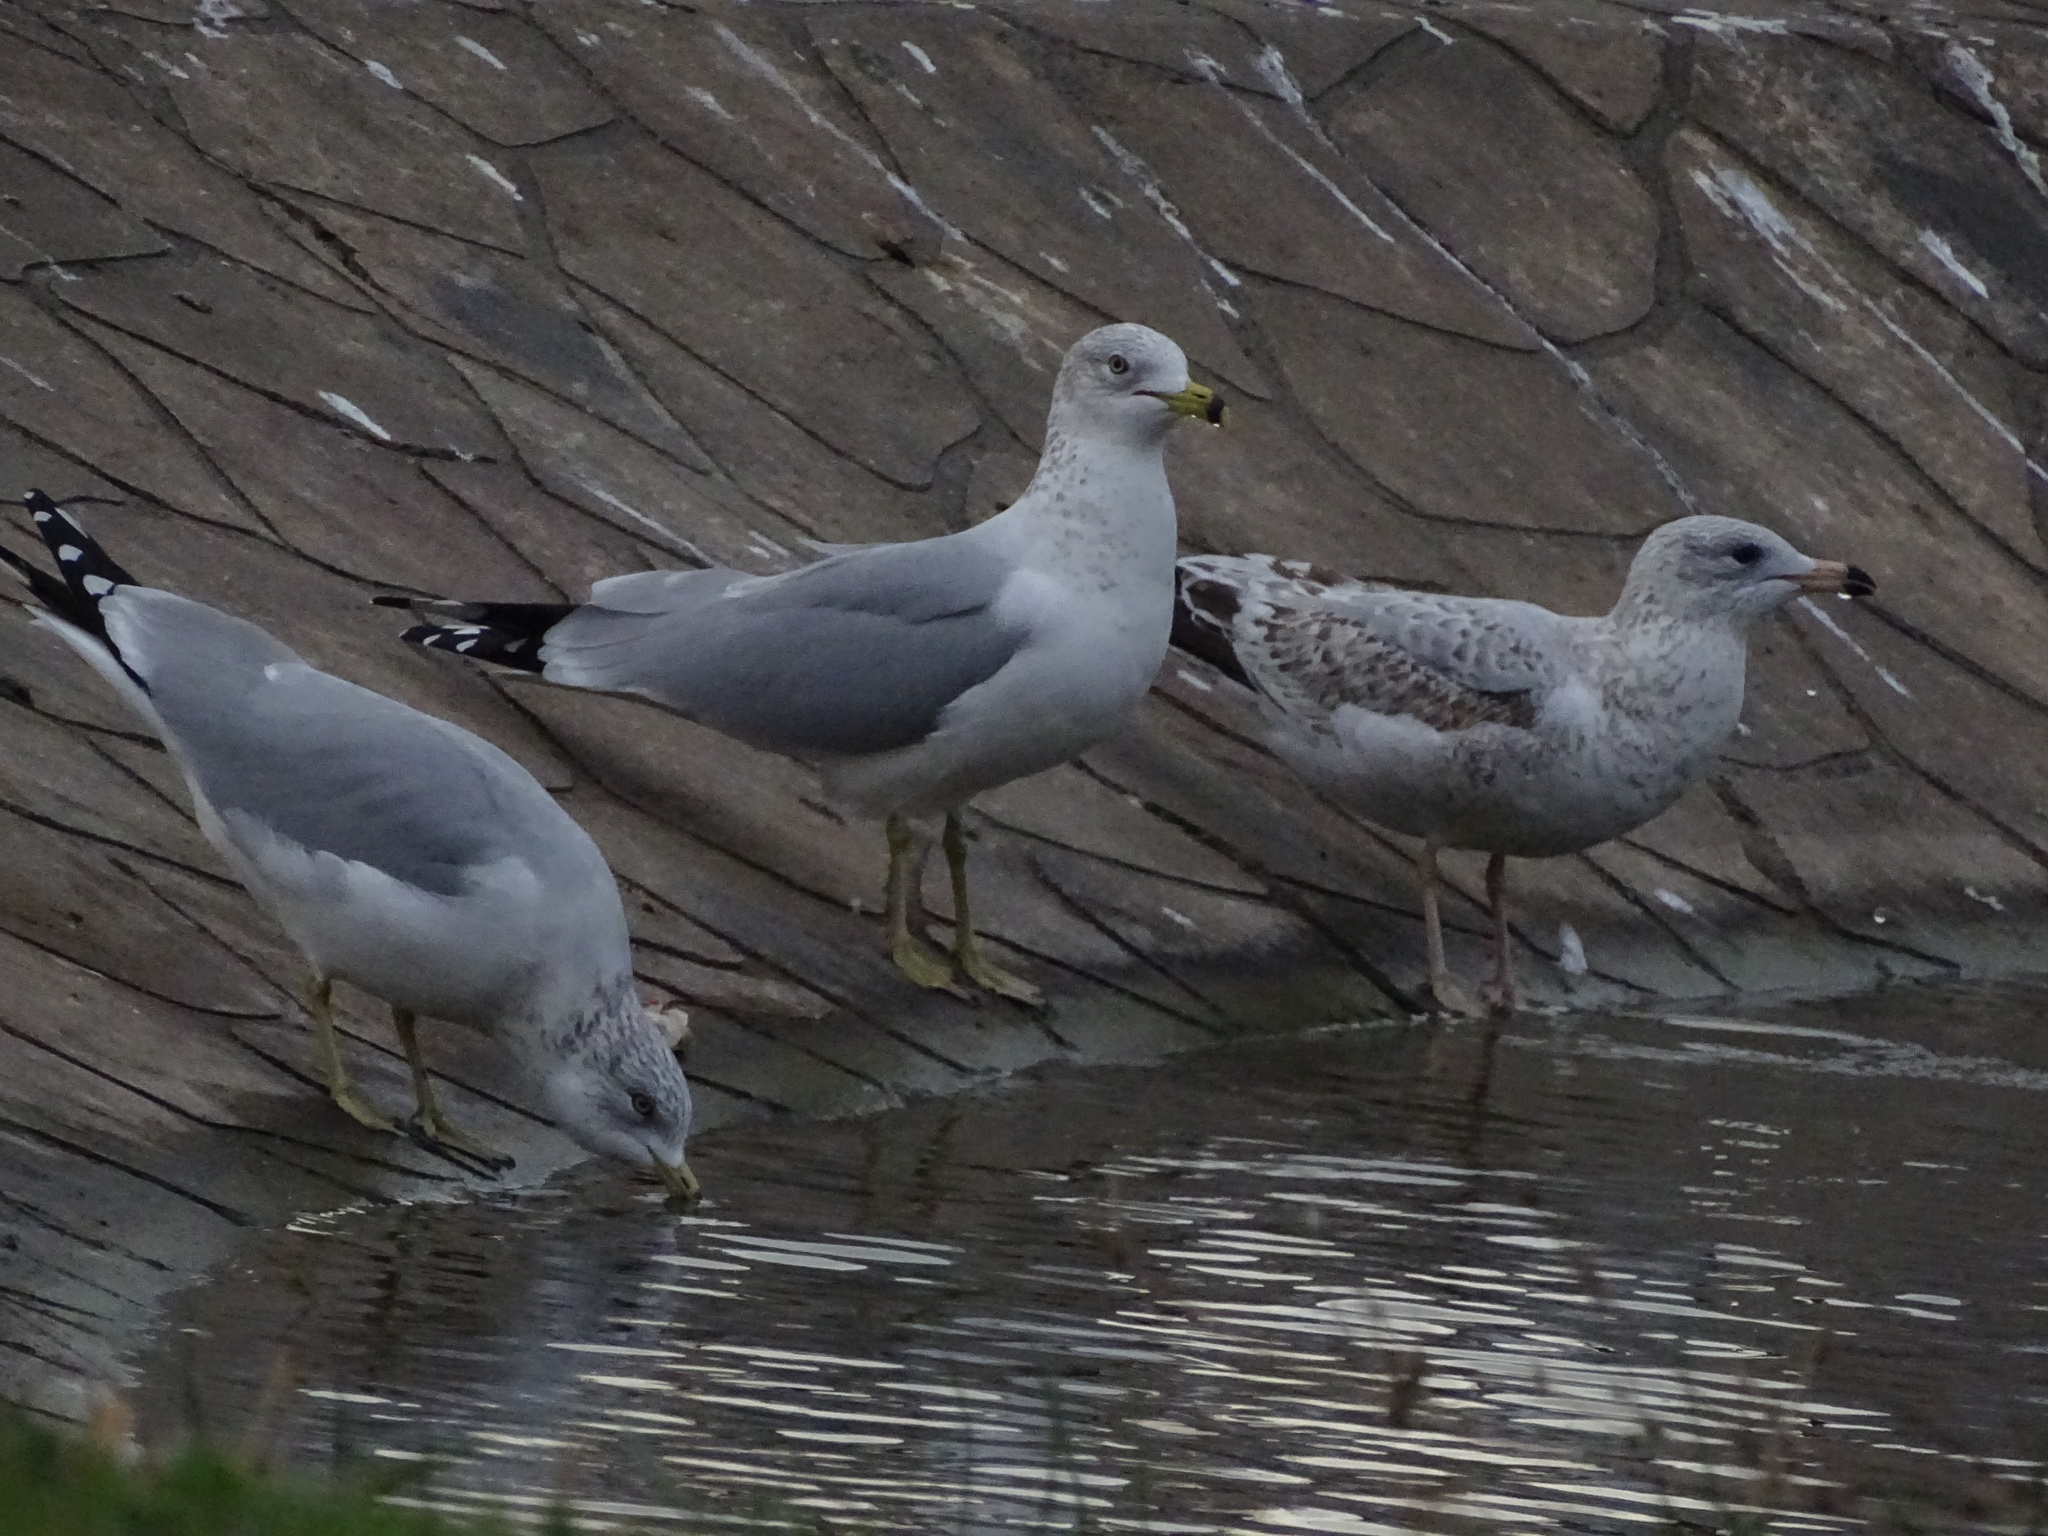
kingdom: Animalia
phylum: Chordata
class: Aves
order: Charadriiformes
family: Laridae
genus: Larus
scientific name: Larus delawarensis
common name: Ring-billed gull
